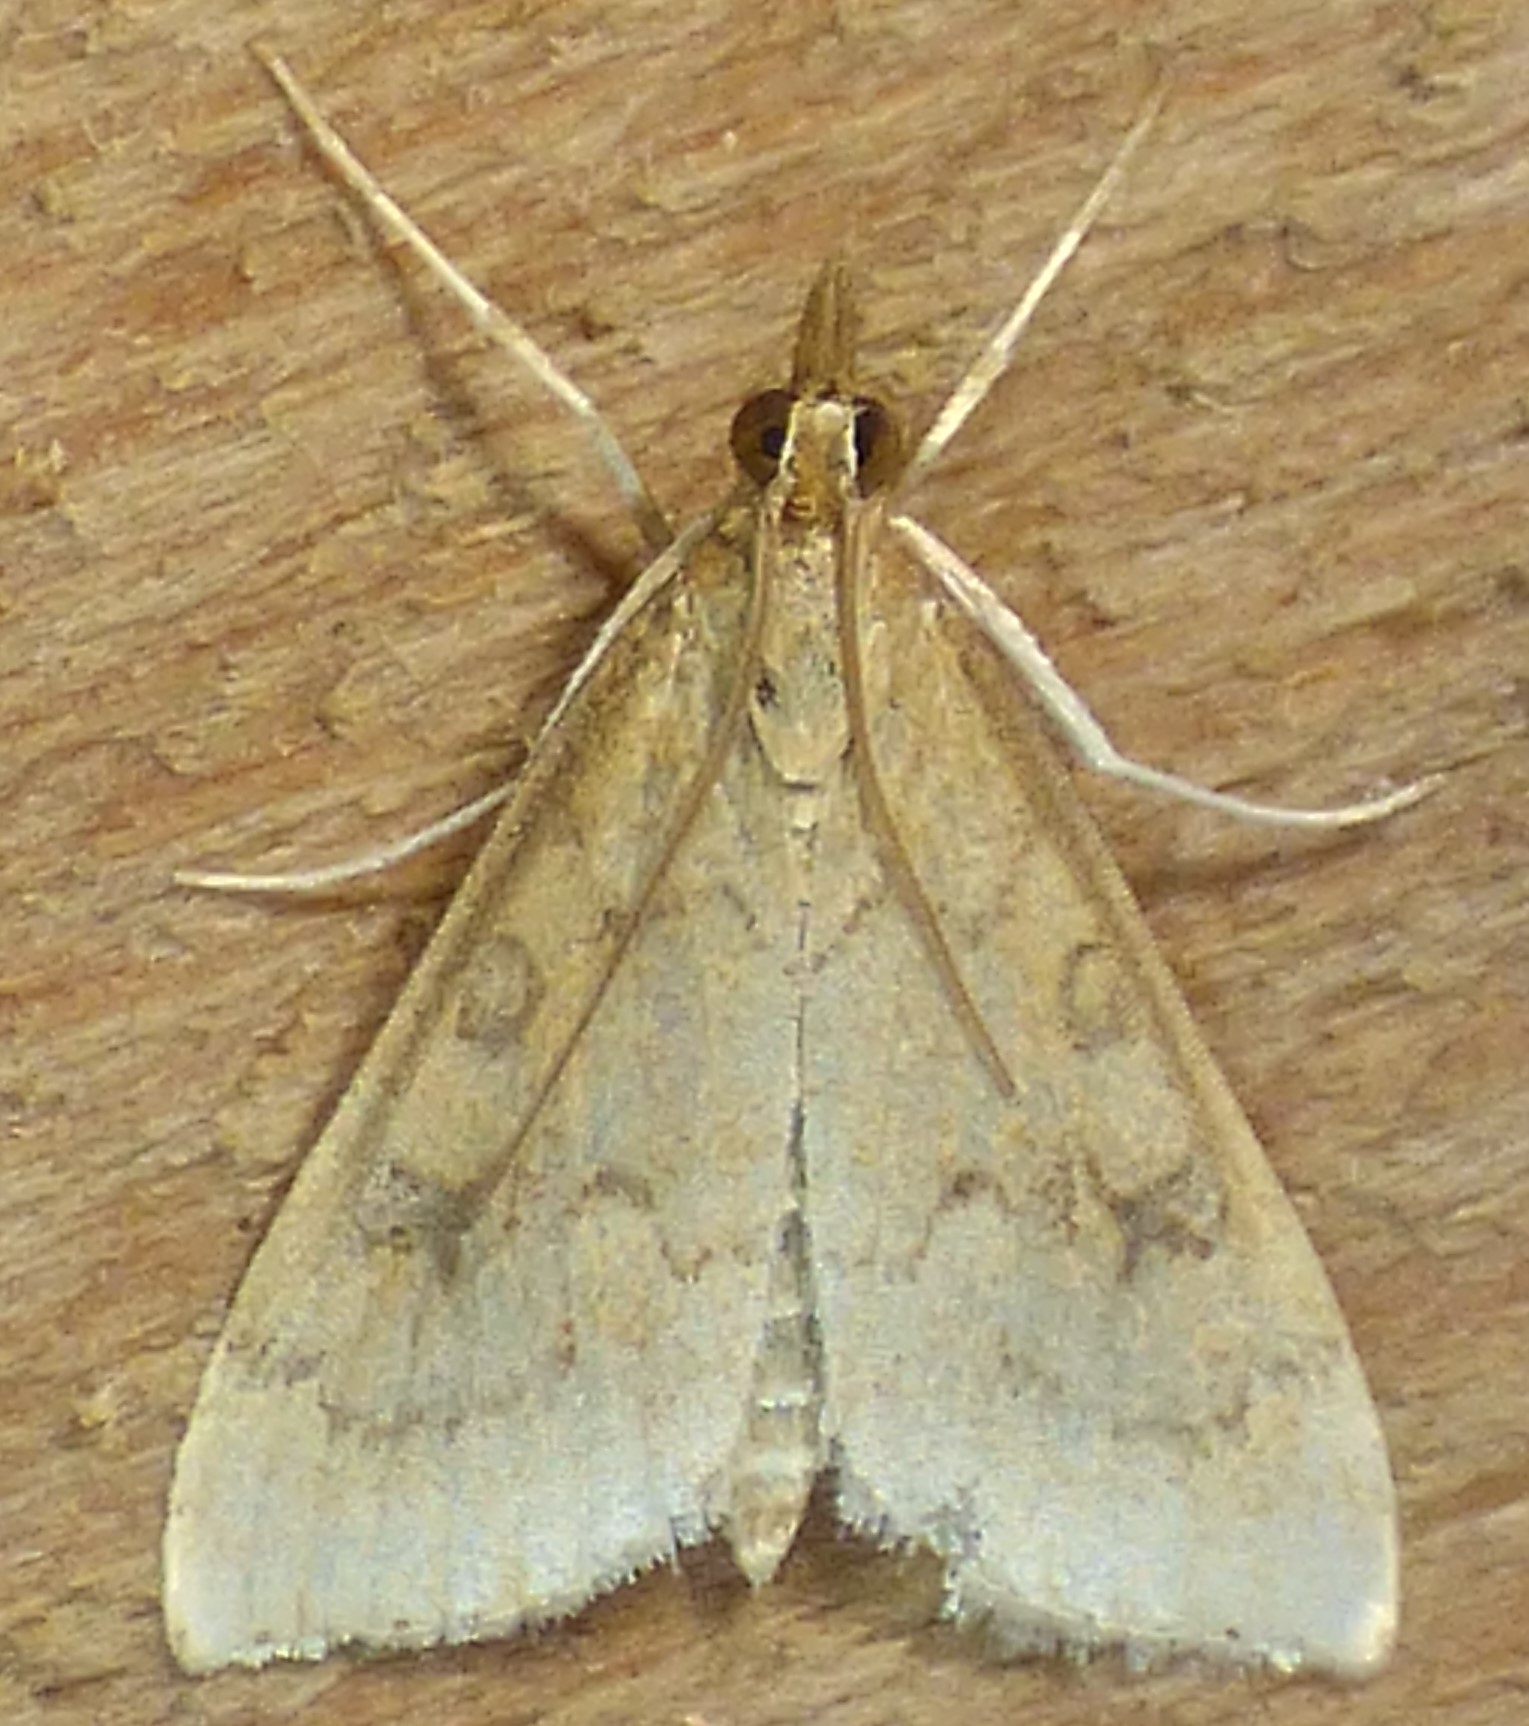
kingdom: Animalia
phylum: Arthropoda
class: Insecta
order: Lepidoptera
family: Crambidae
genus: Udea
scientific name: Udea rubigalis
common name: Celery leaftier moth
